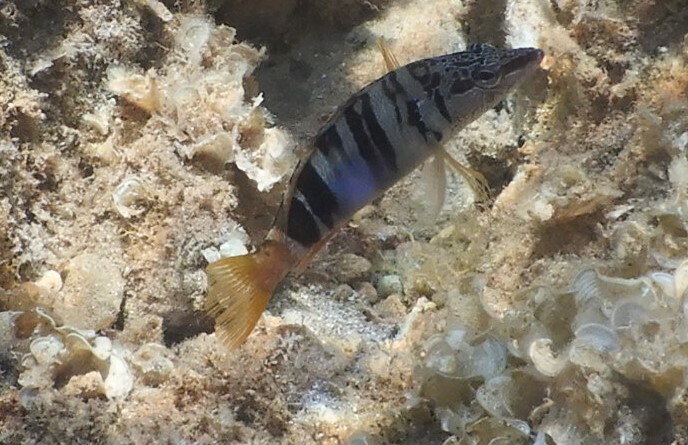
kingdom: Animalia
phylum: Chordata
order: Perciformes
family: Serranidae
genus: Serranus
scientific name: Serranus scriba
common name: Painted comber
